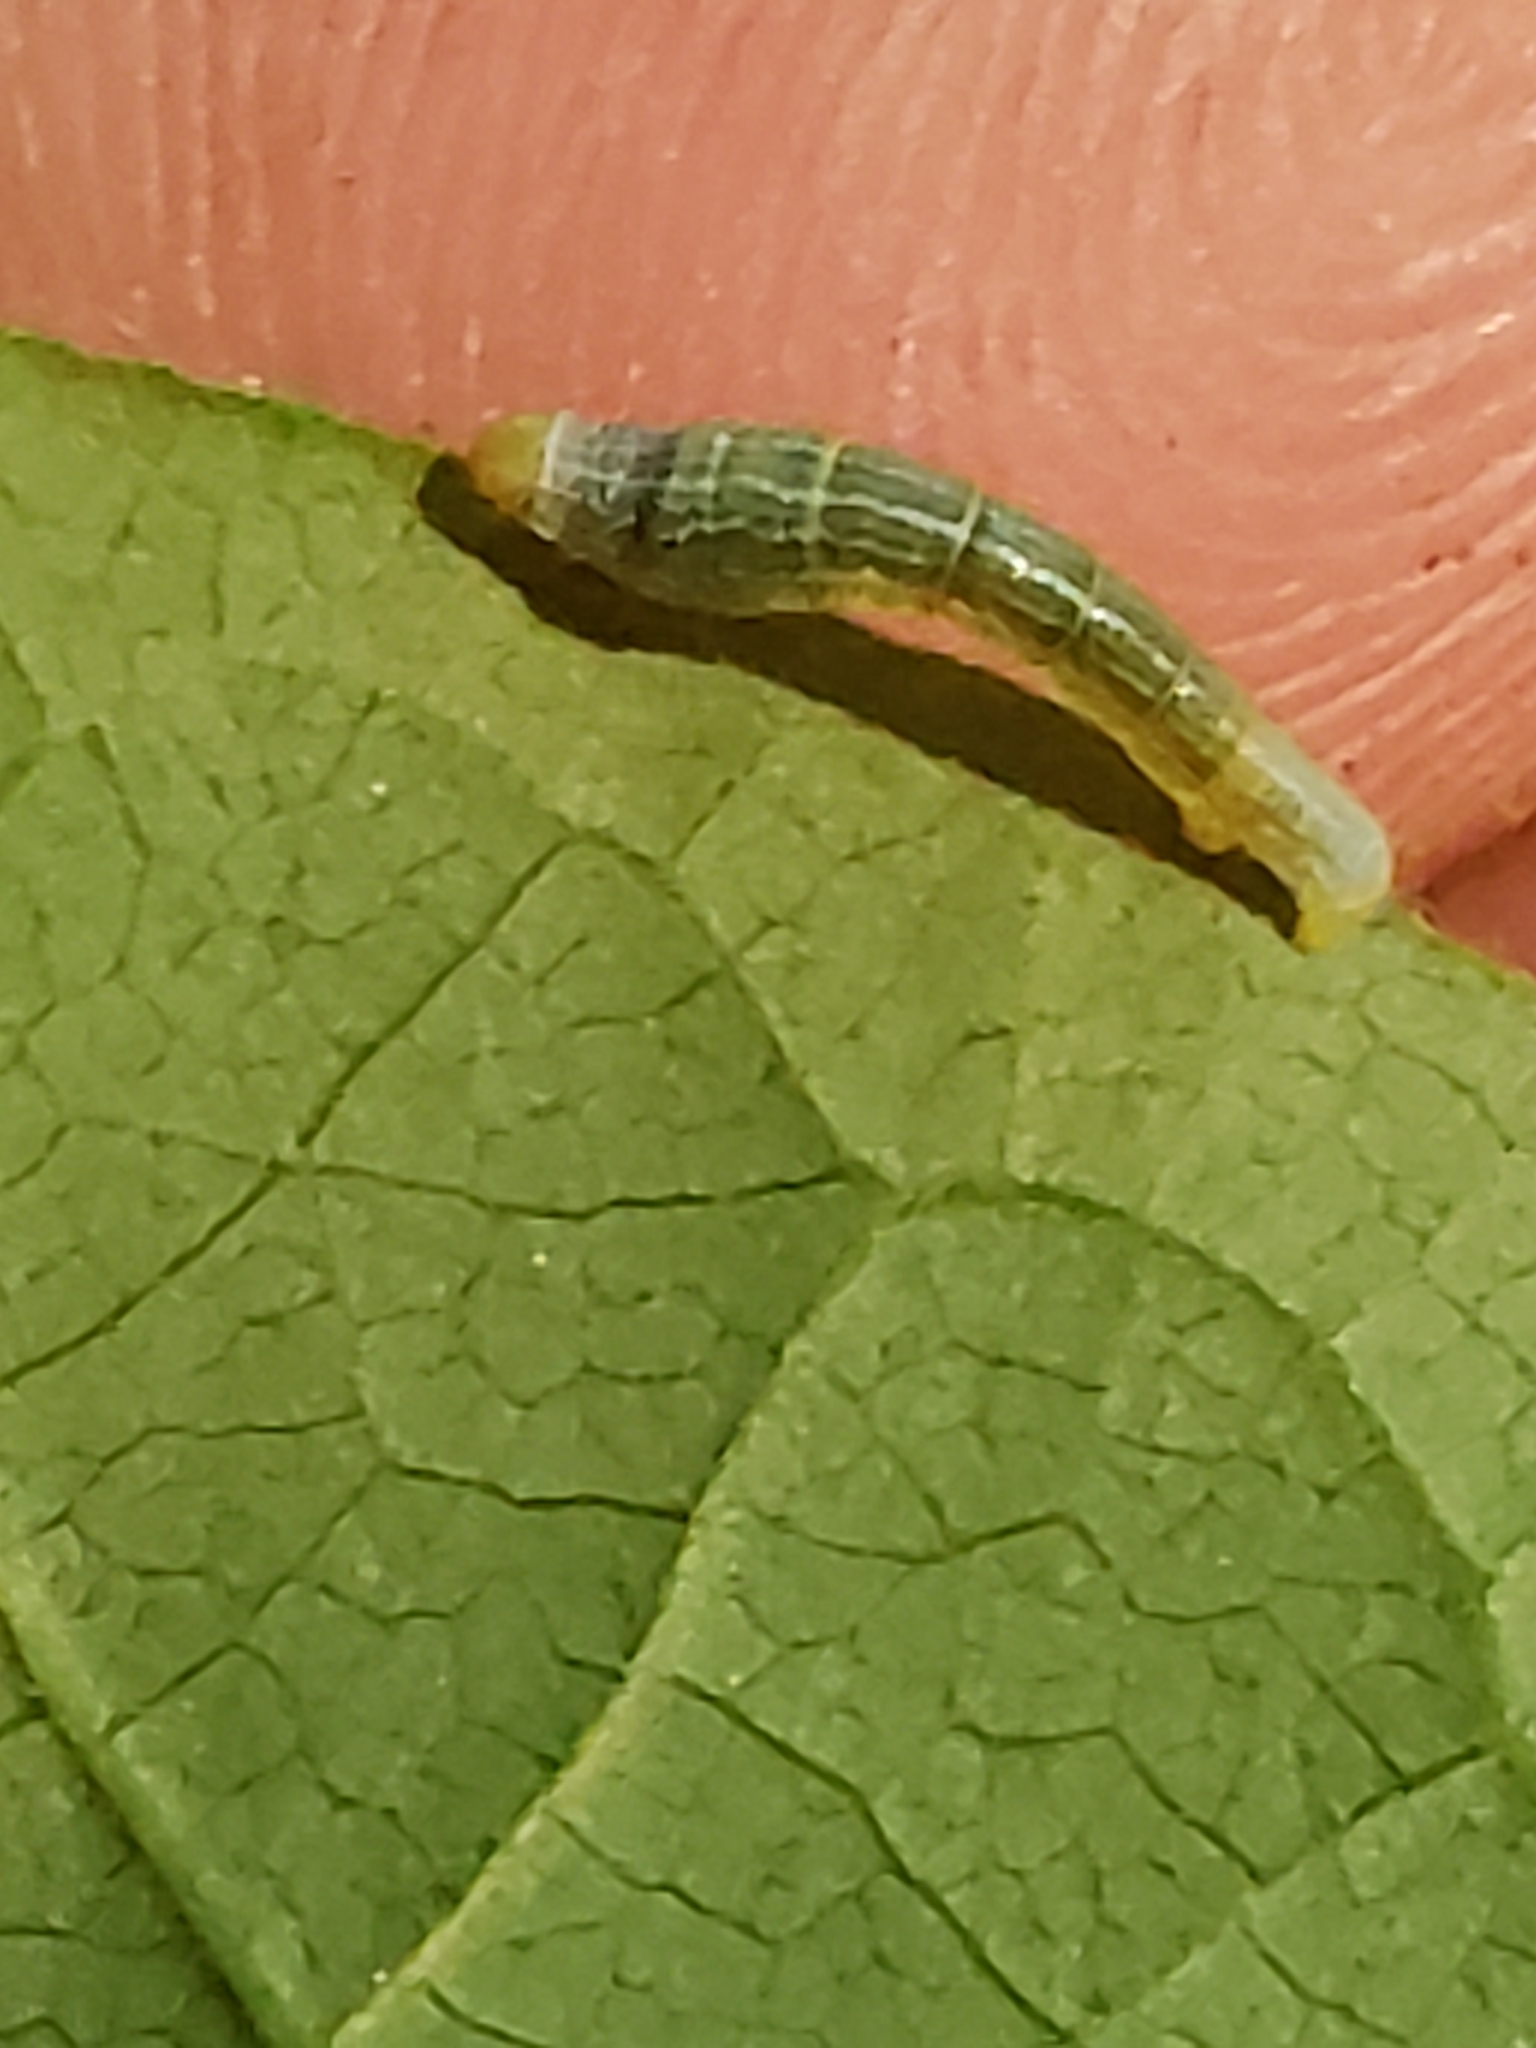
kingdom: Animalia
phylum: Arthropoda
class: Insecta
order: Lepidoptera
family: Geometridae
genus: Epimecis
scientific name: Epimecis hortaria
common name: Tulip-tree beauty
